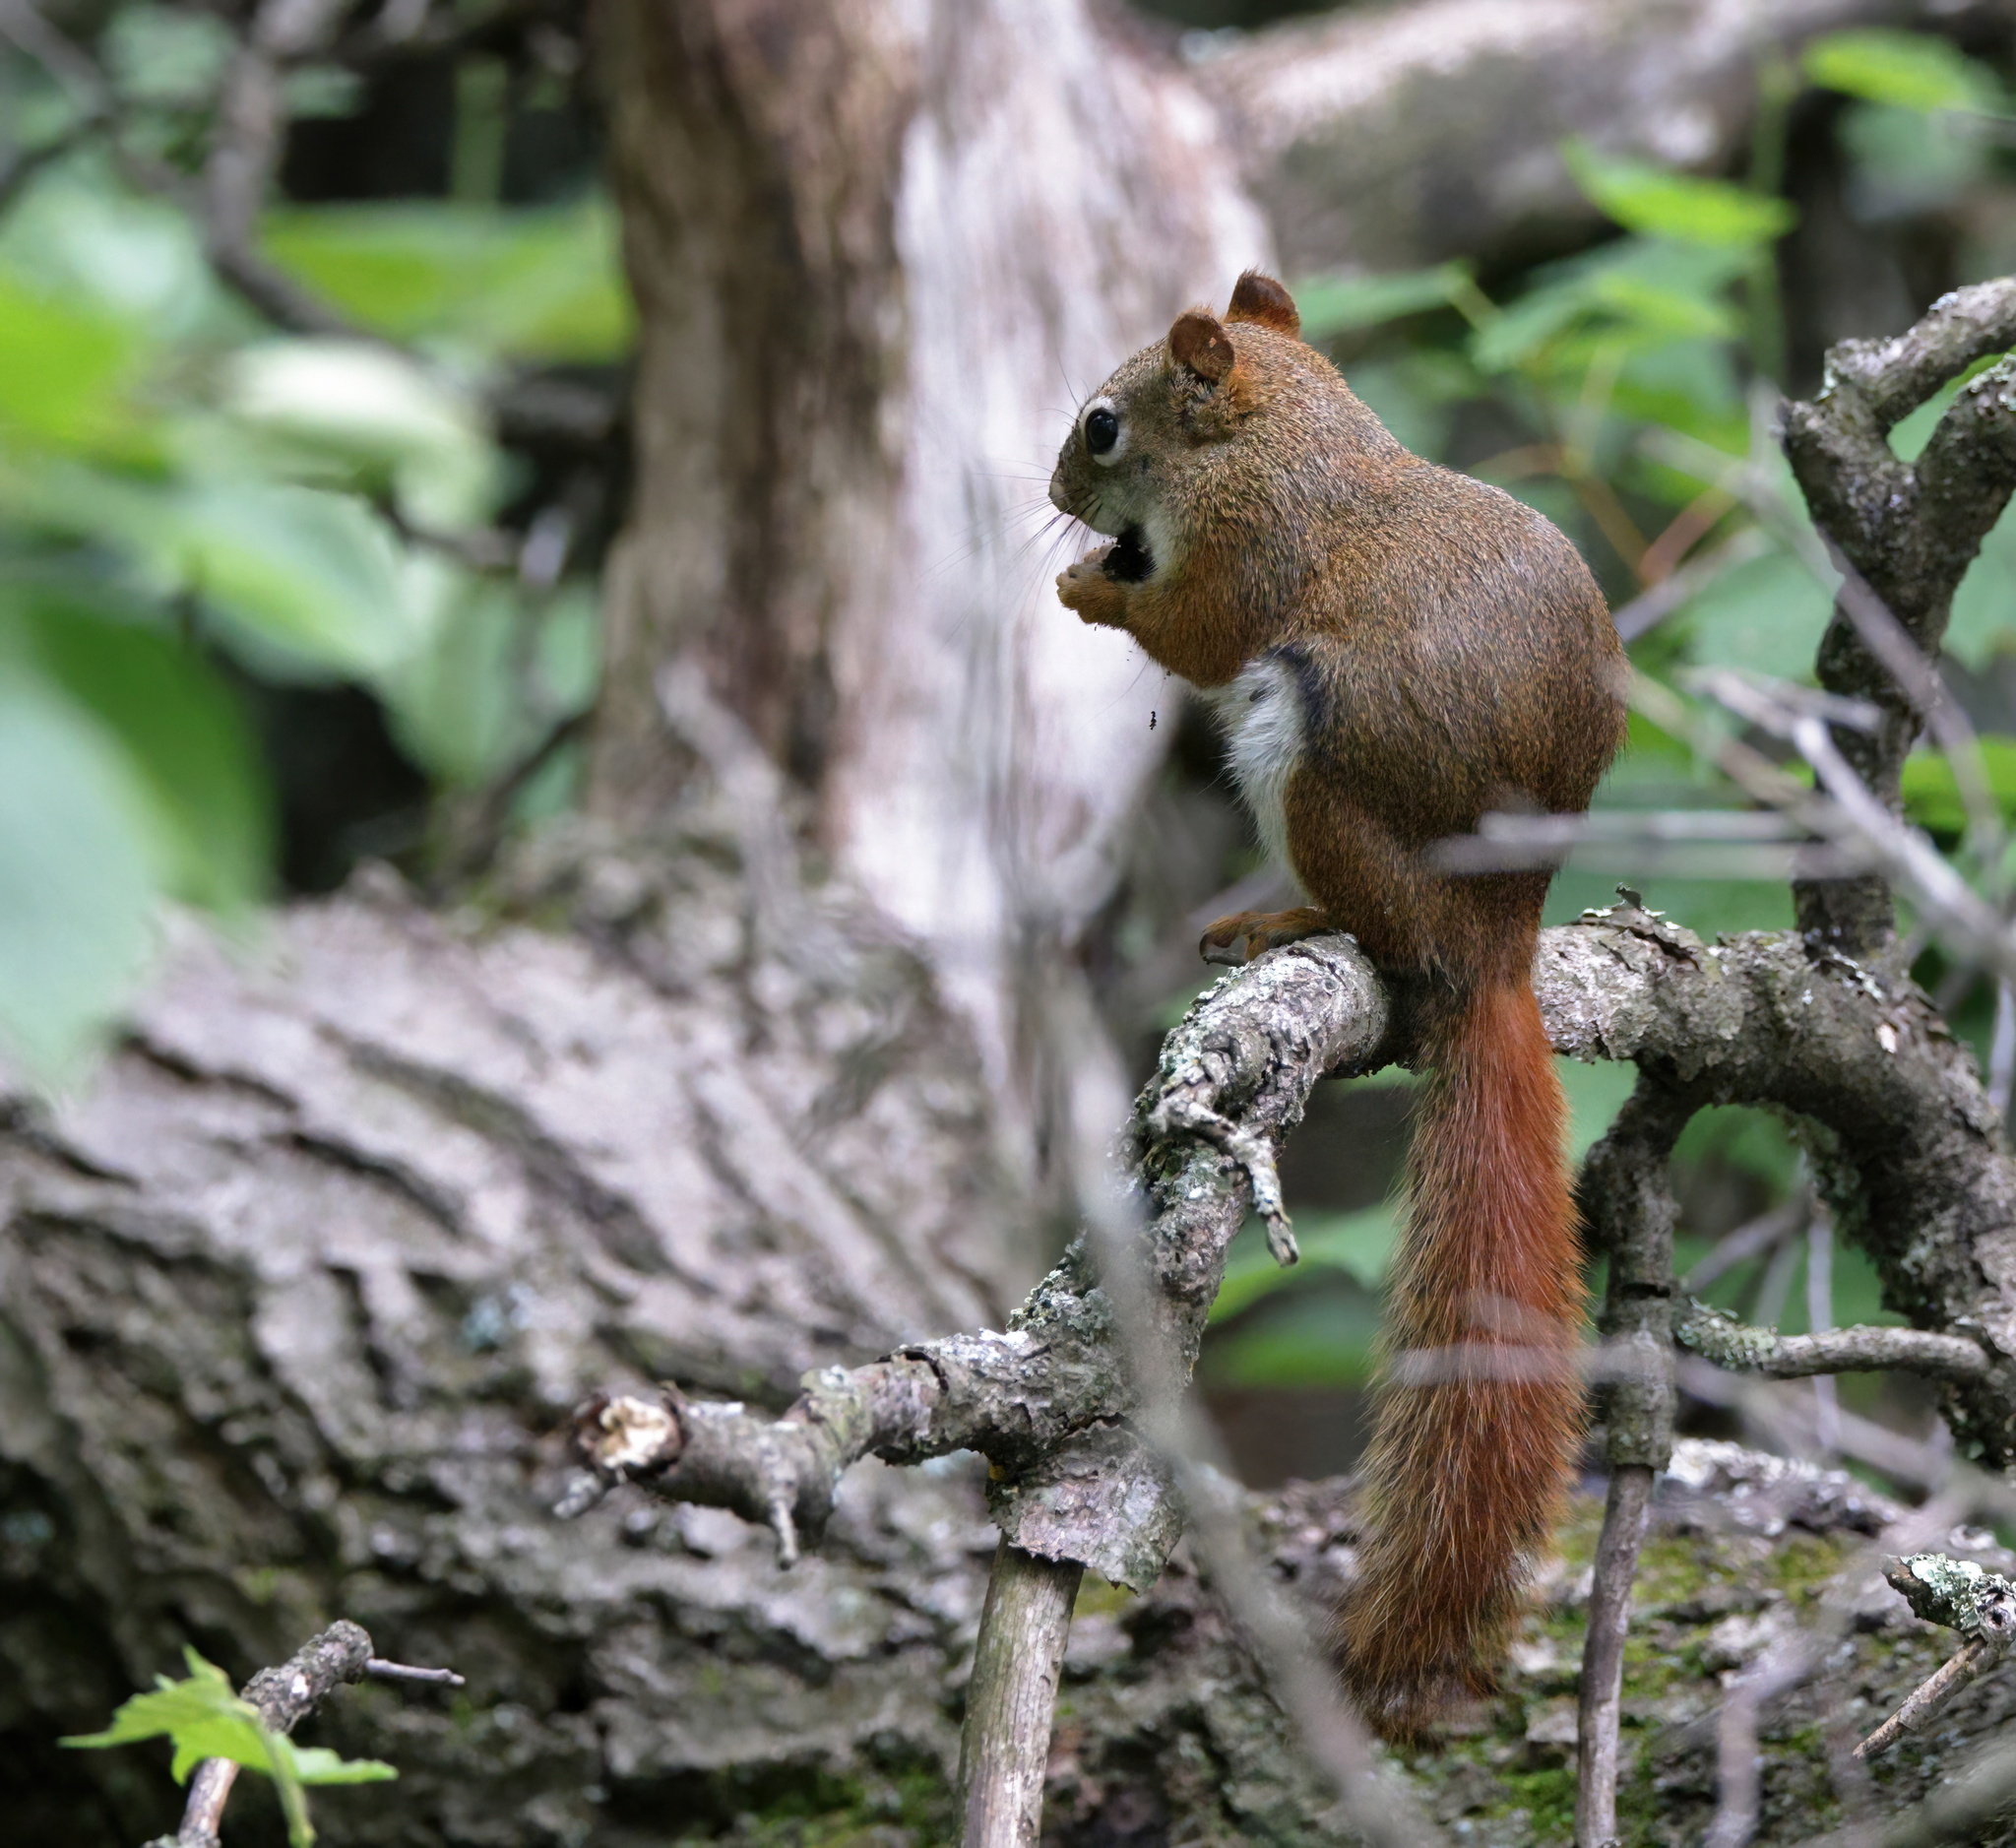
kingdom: Animalia
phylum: Chordata
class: Mammalia
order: Rodentia
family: Sciuridae
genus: Tamiasciurus
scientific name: Tamiasciurus hudsonicus
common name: Red squirrel
